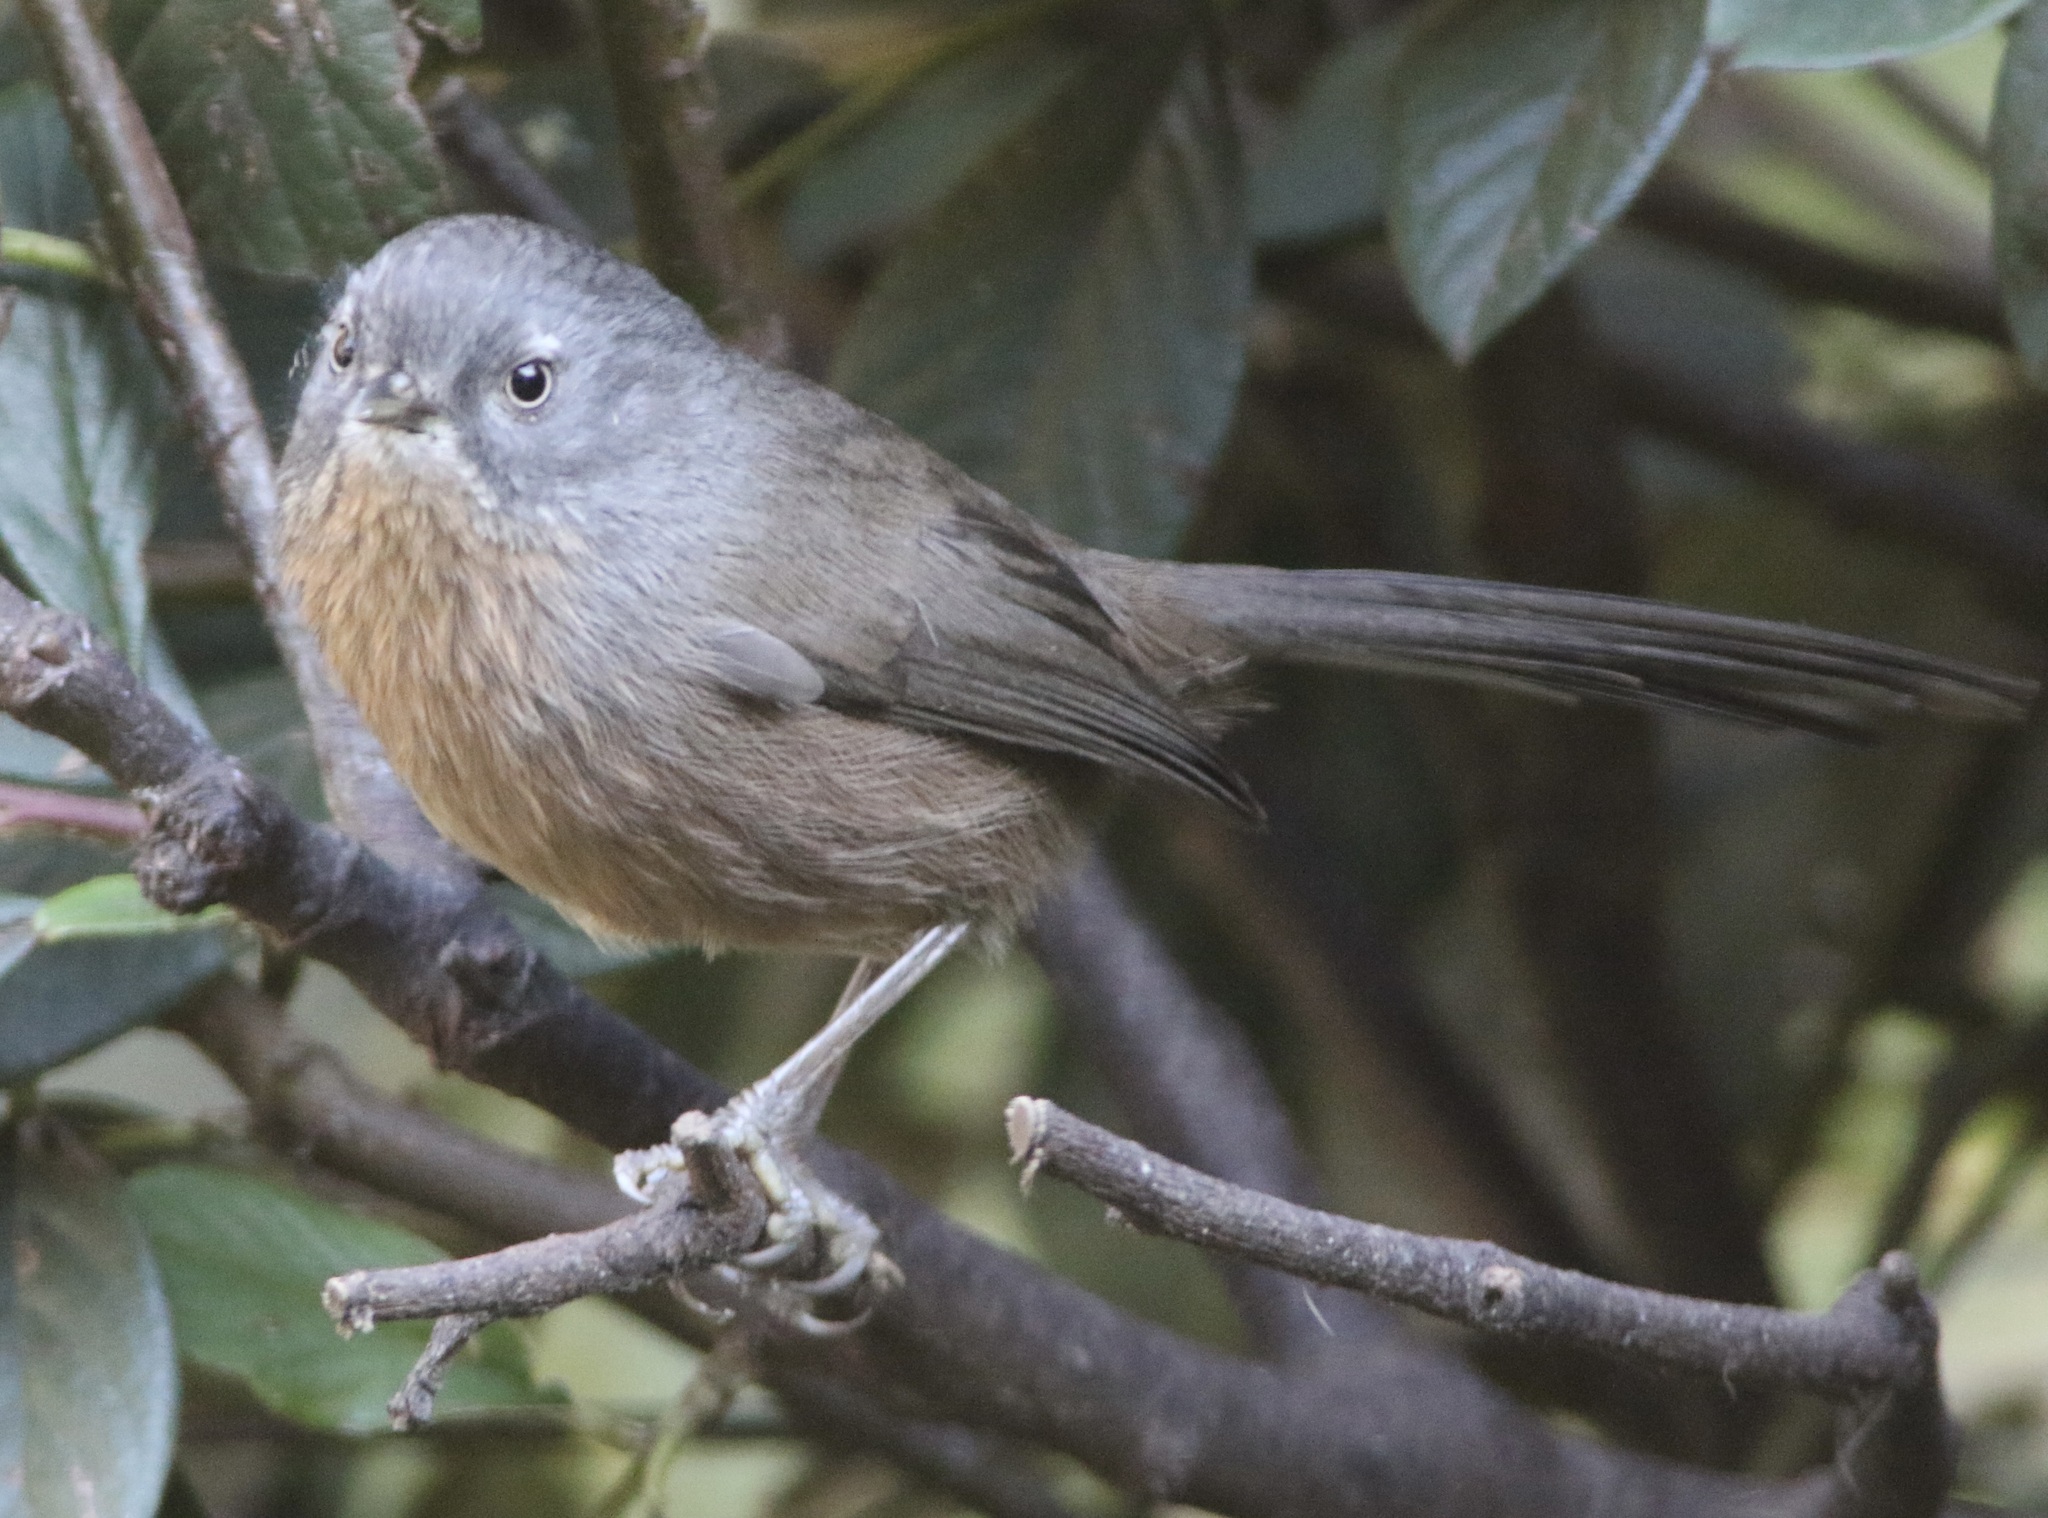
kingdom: Animalia
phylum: Chordata
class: Aves
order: Passeriformes
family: Sylviidae
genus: Chamaea
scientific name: Chamaea fasciata
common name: Wrentit
